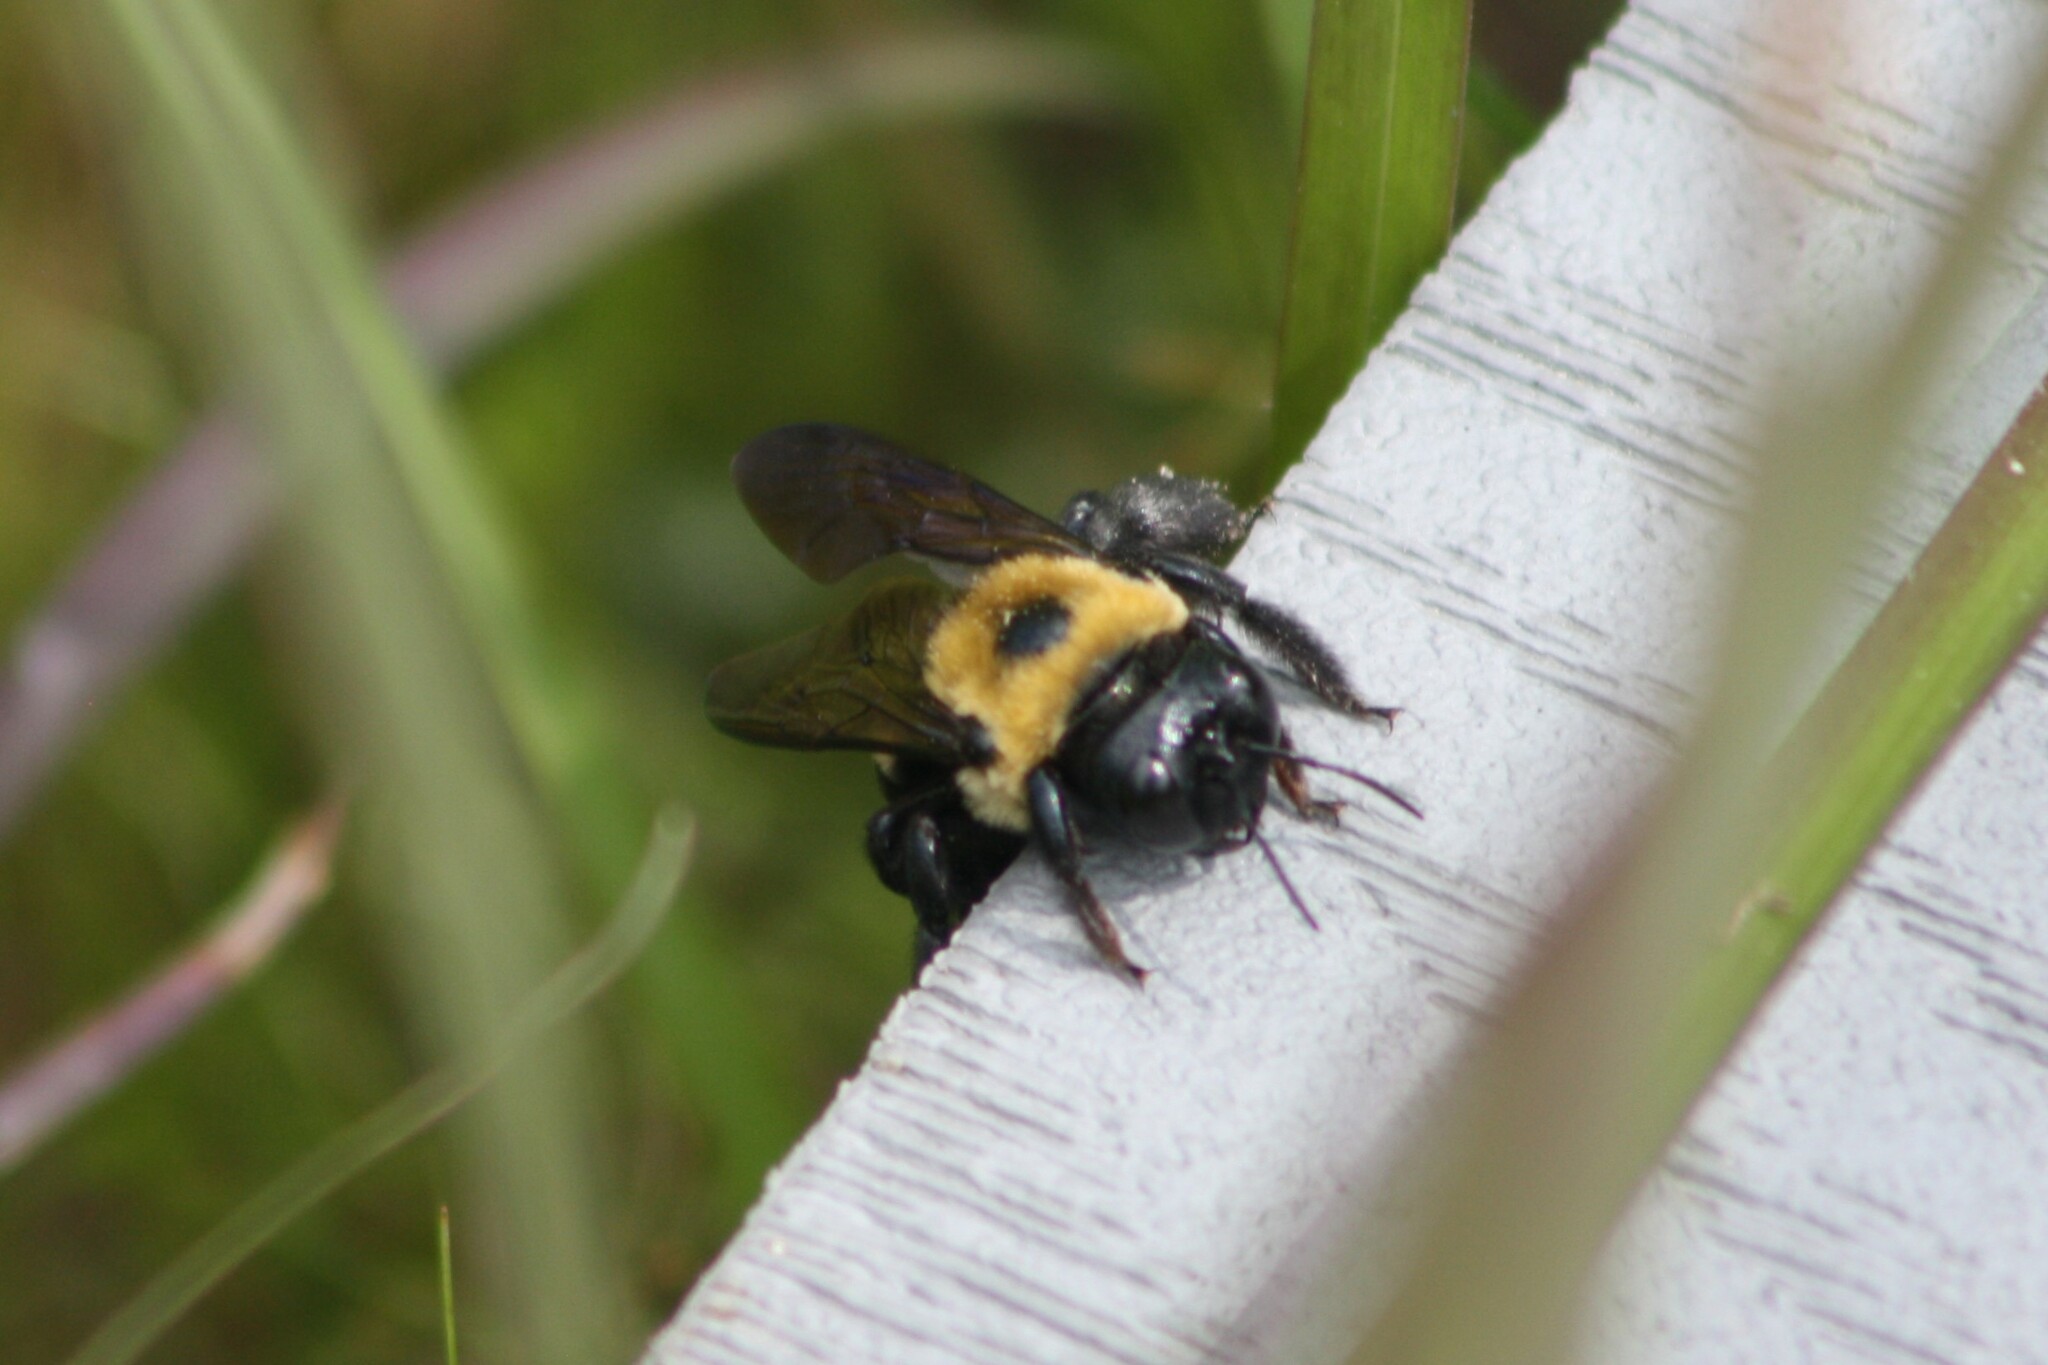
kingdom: Animalia
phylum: Arthropoda
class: Insecta
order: Hymenoptera
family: Apidae
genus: Xylocopa
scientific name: Xylocopa virginica
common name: Carpenter bee
